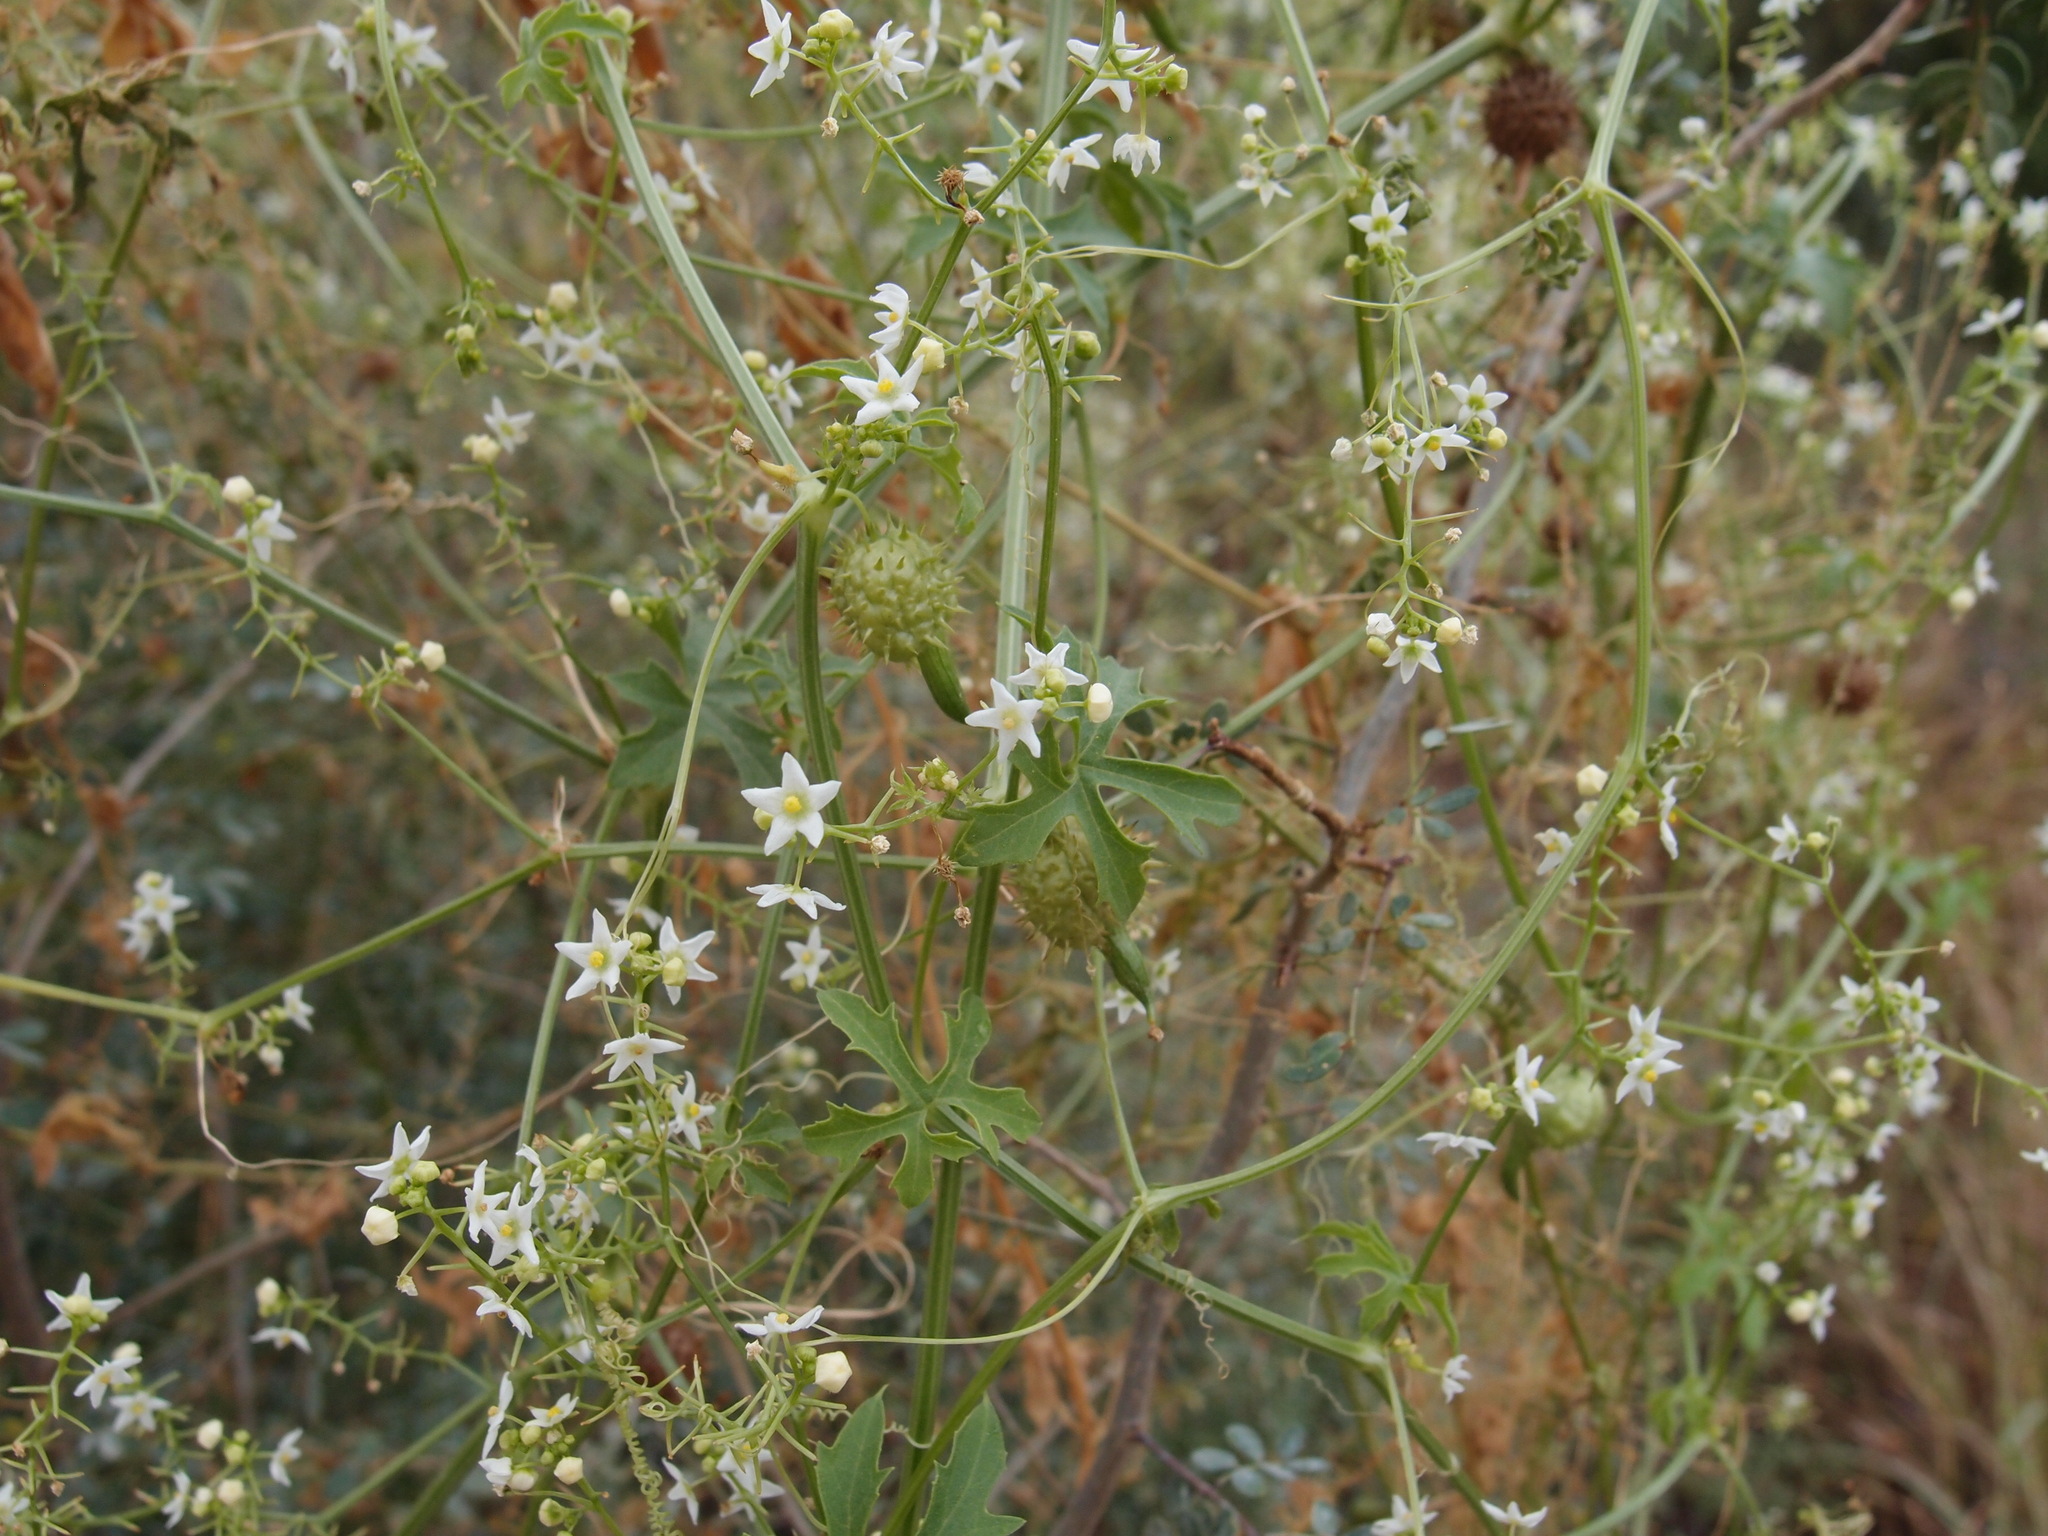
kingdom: Plantae
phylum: Tracheophyta
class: Magnoliopsida
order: Cucurbitales
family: Cucurbitaceae
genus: Echinopepon
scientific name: Echinopepon insularis
